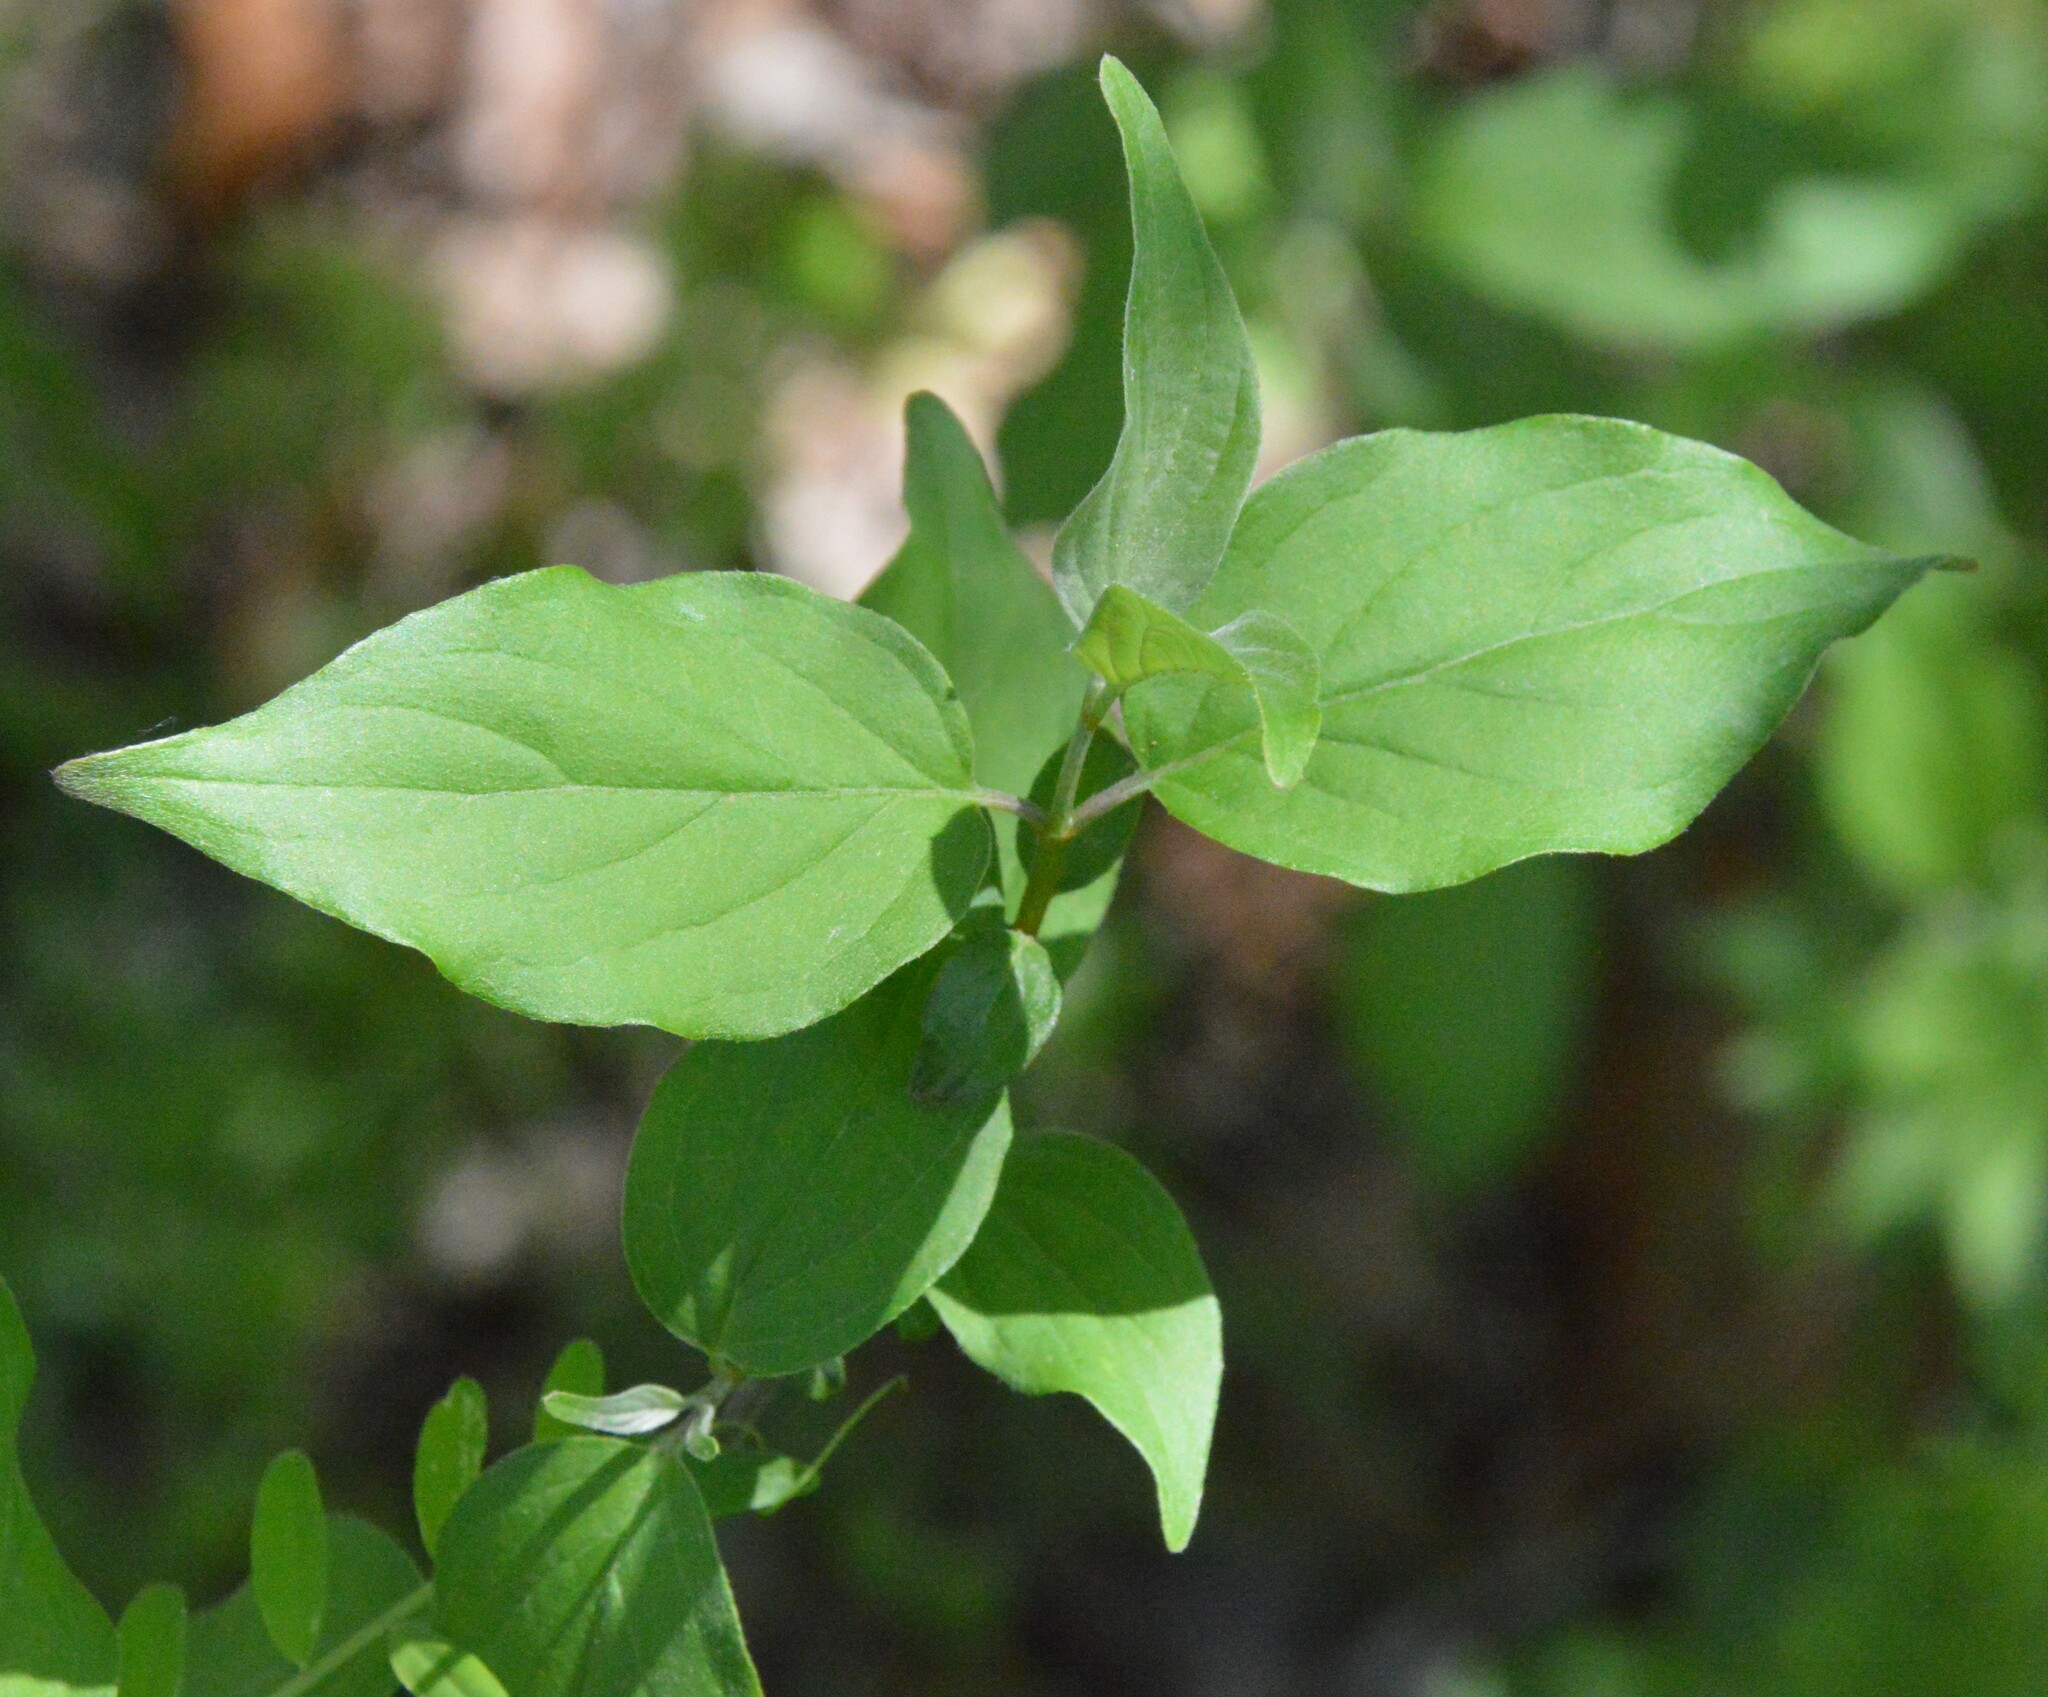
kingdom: Plantae
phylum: Tracheophyta
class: Magnoliopsida
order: Cornales
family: Cornaceae
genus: Cornus
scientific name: Cornus drummondii
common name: Rough-leaf dogwood
